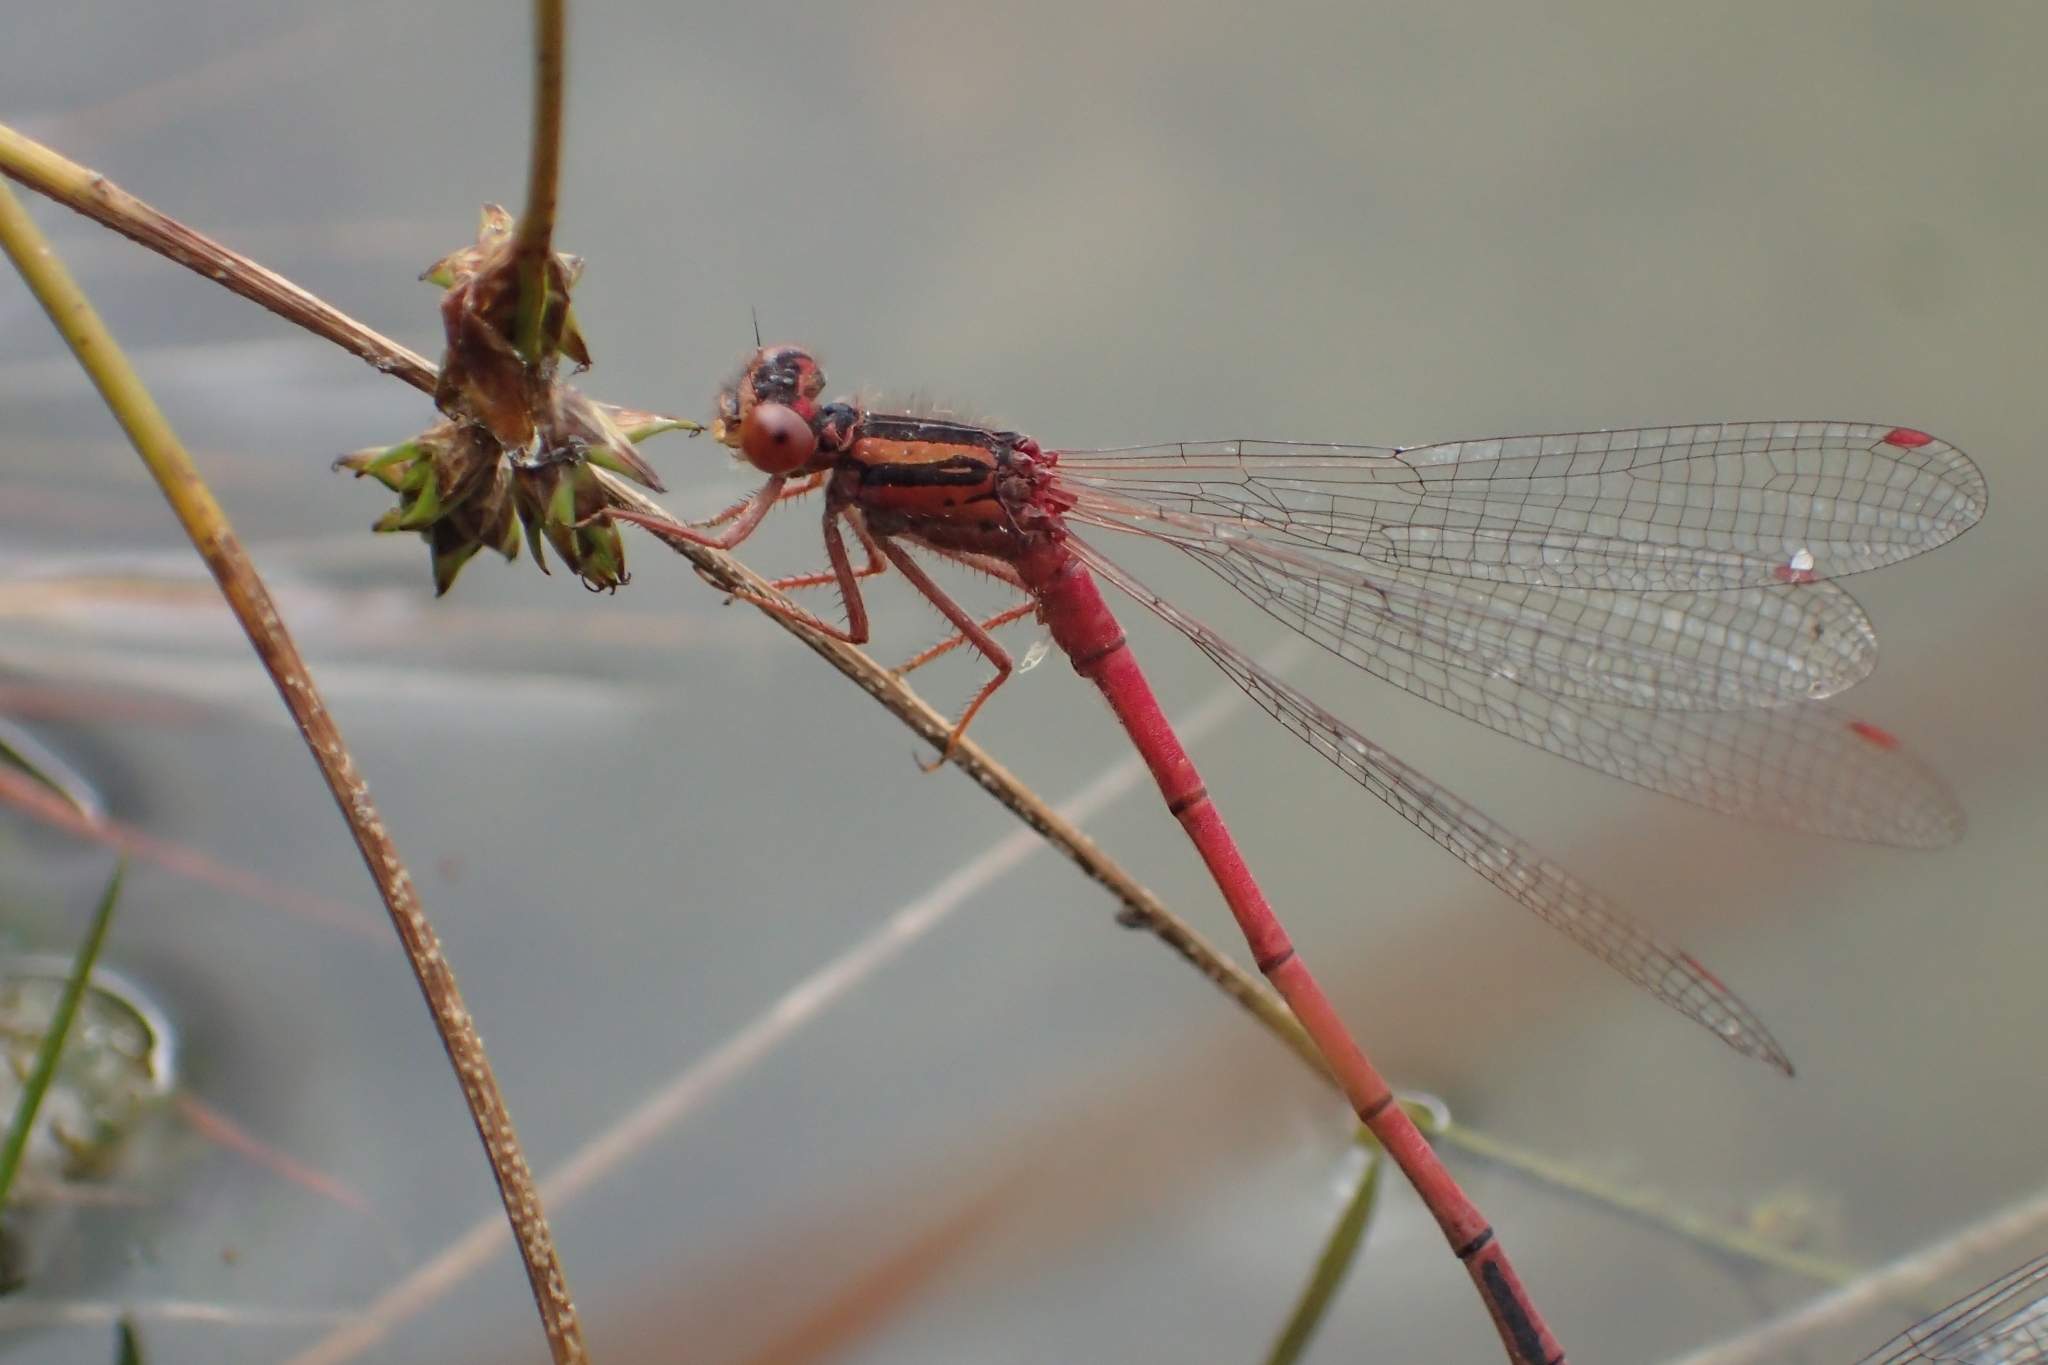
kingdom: Animalia
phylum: Arthropoda
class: Insecta
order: Odonata
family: Coenagrionidae
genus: Xanthocnemis
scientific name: Xanthocnemis zealandica
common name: Common redcoat damselfly
